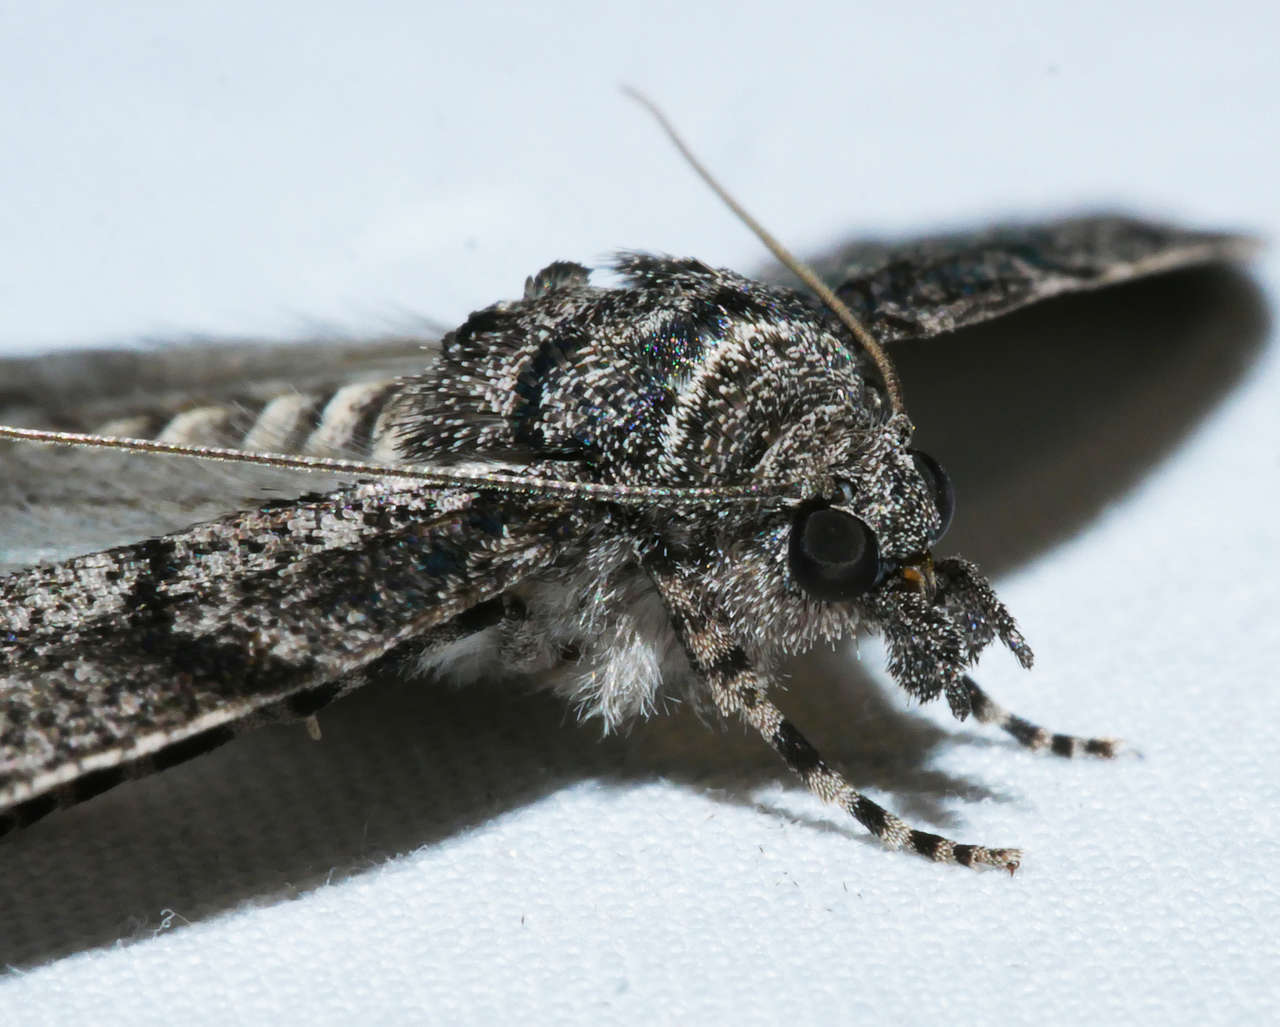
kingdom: Animalia
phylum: Arthropoda
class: Insecta
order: Lepidoptera
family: Geometridae
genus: Smyriodes
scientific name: Smyriodes trigramma
